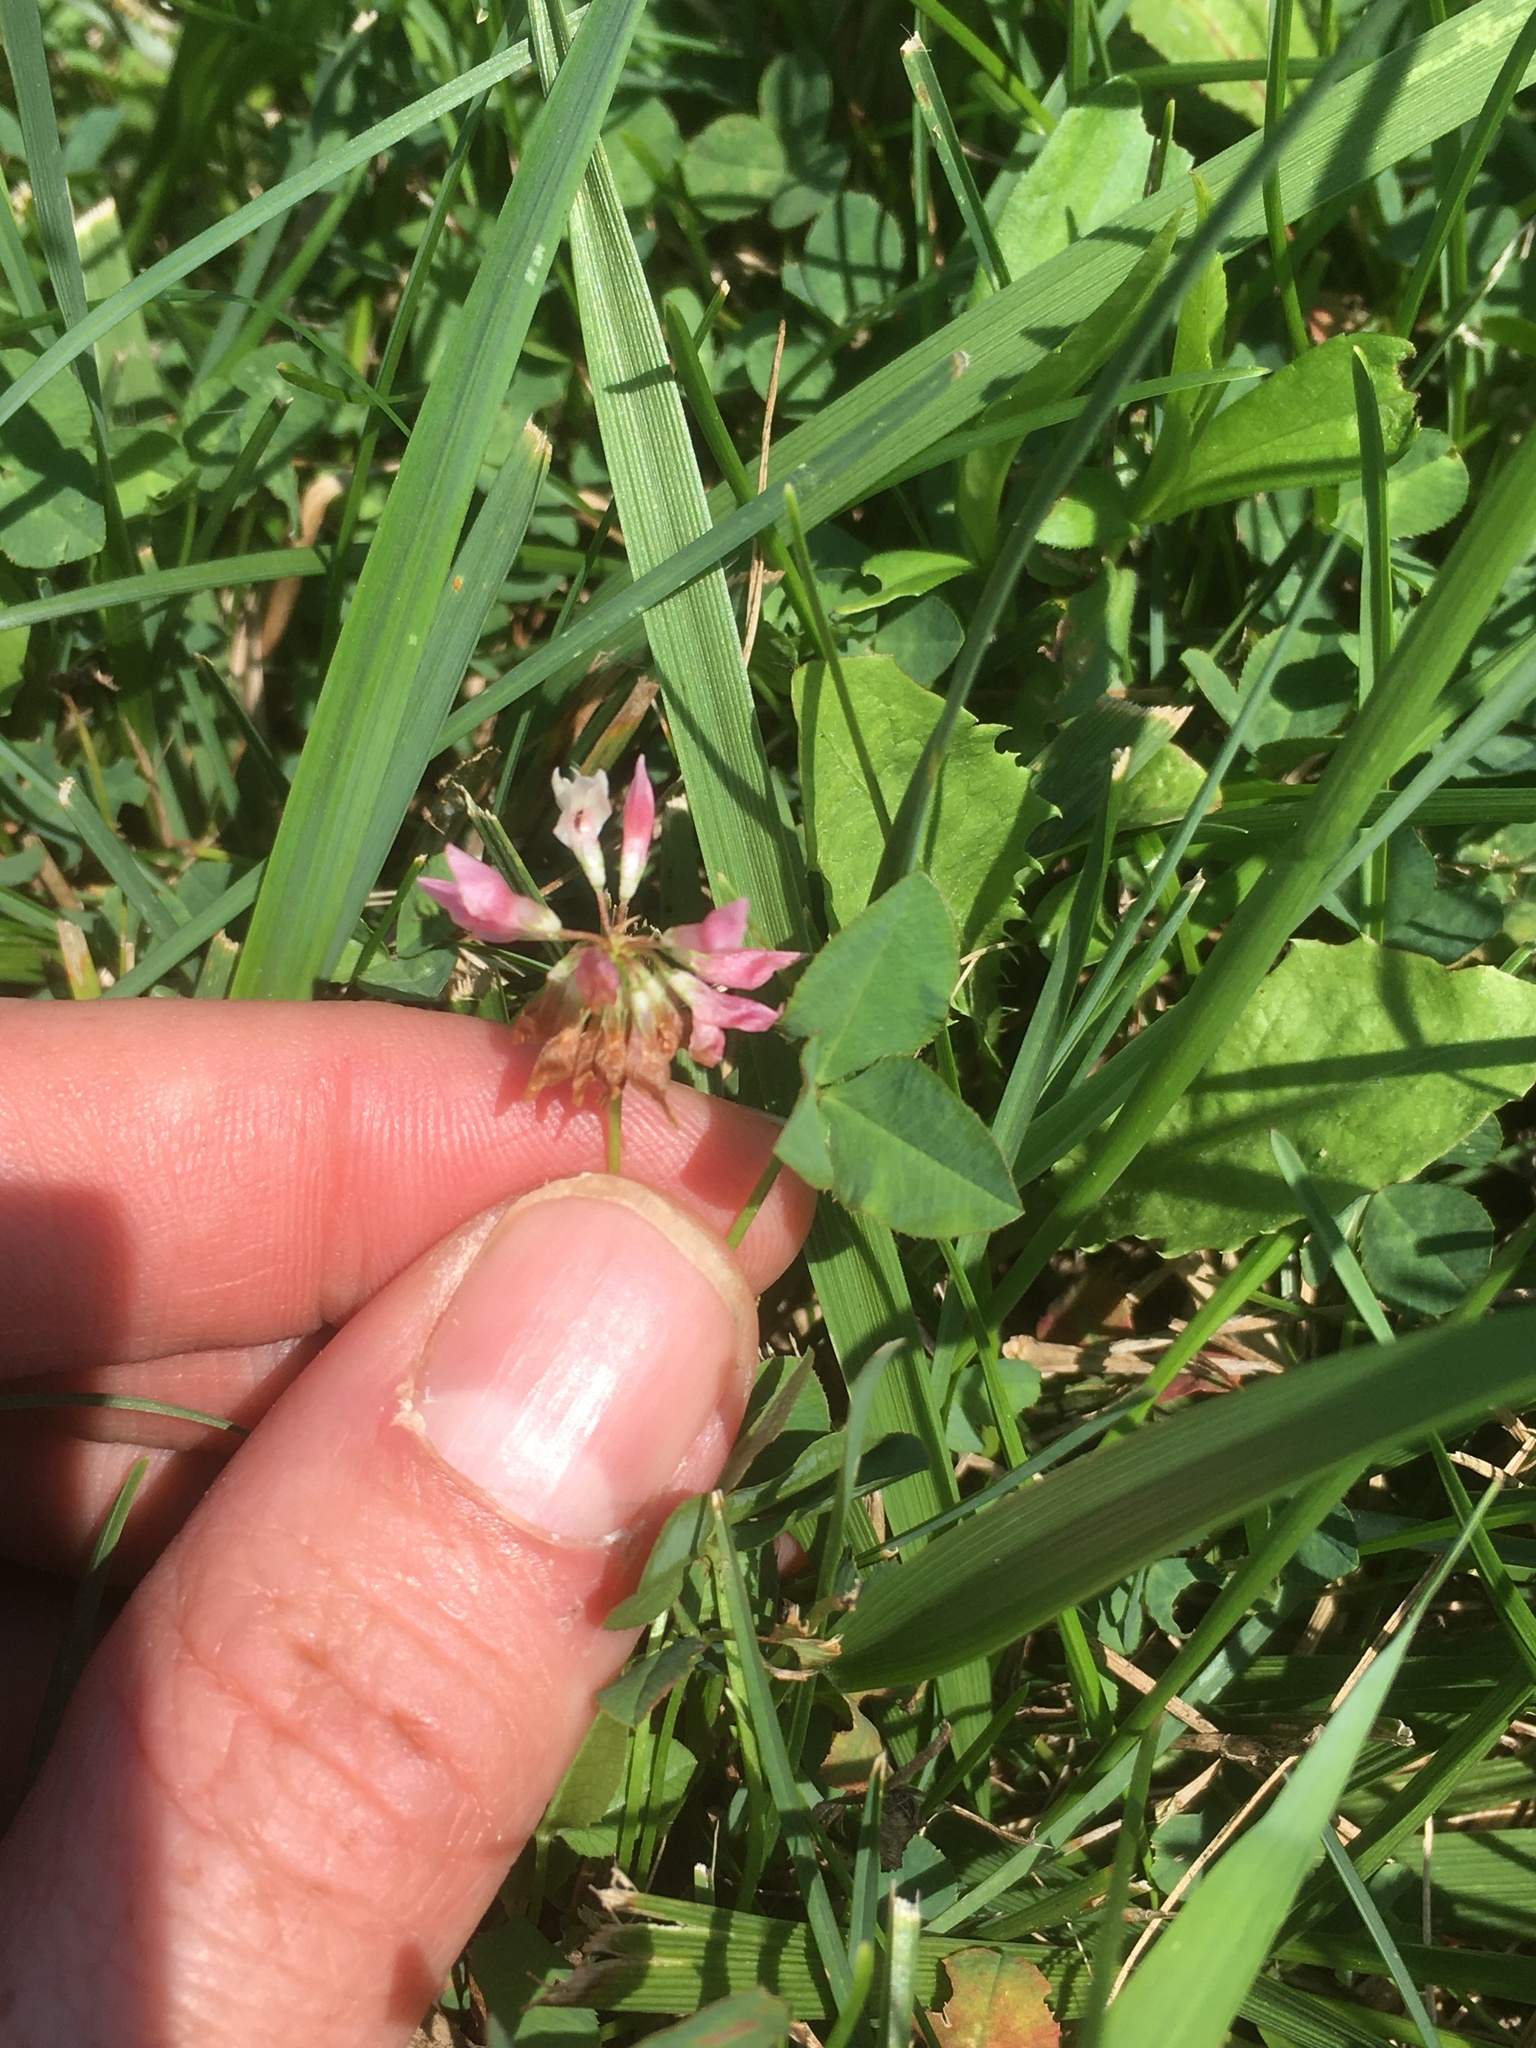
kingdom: Plantae
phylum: Tracheophyta
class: Magnoliopsida
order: Fabales
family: Fabaceae
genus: Trifolium
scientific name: Trifolium hybridum
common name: Alsike clover
